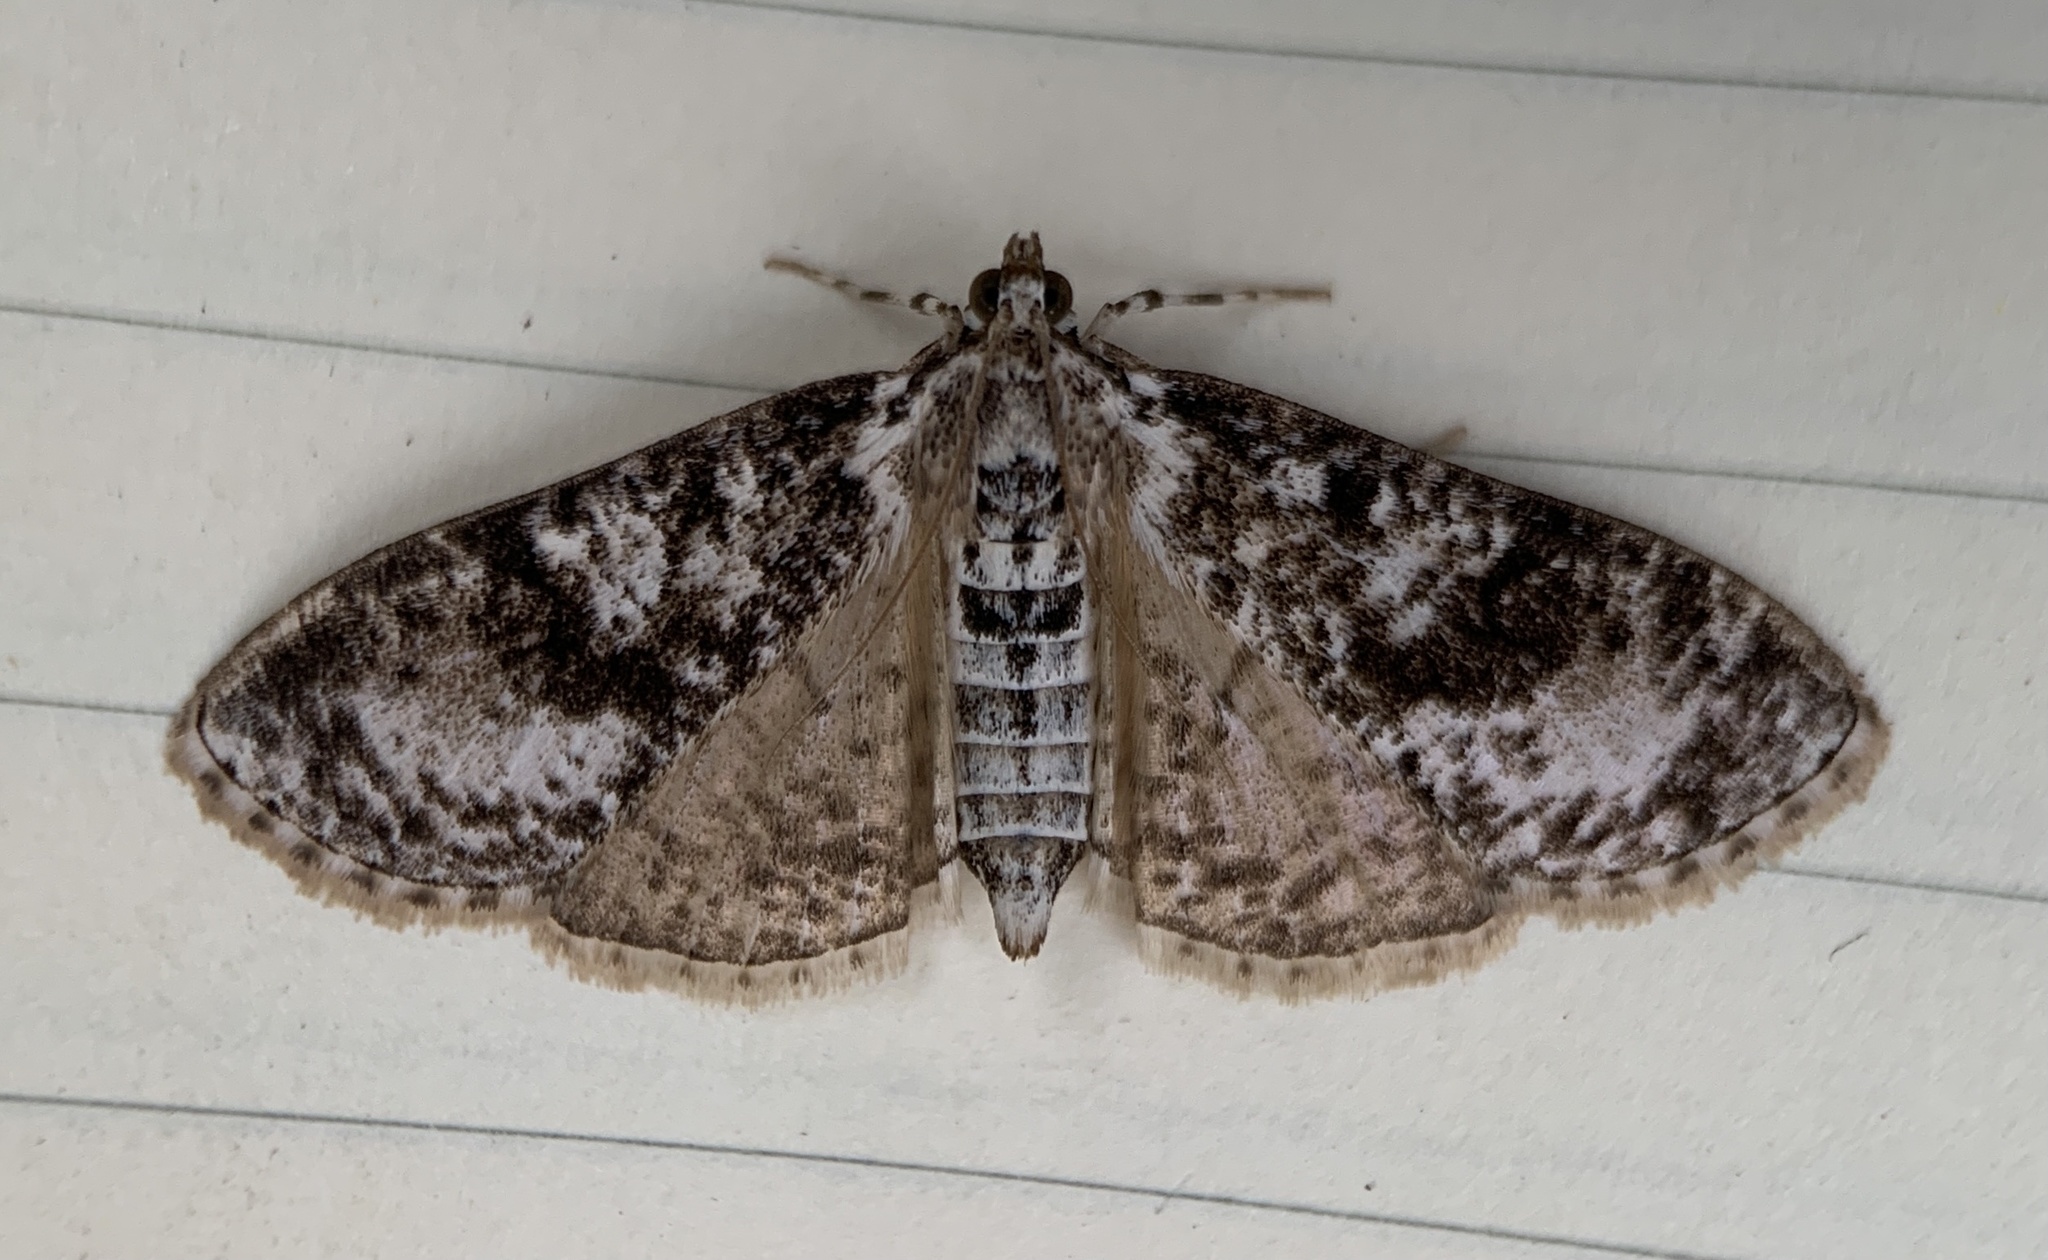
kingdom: Animalia
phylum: Arthropoda
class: Insecta
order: Lepidoptera
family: Crambidae
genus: Palpita
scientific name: Palpita magniferalis
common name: Splendid palpita moth
